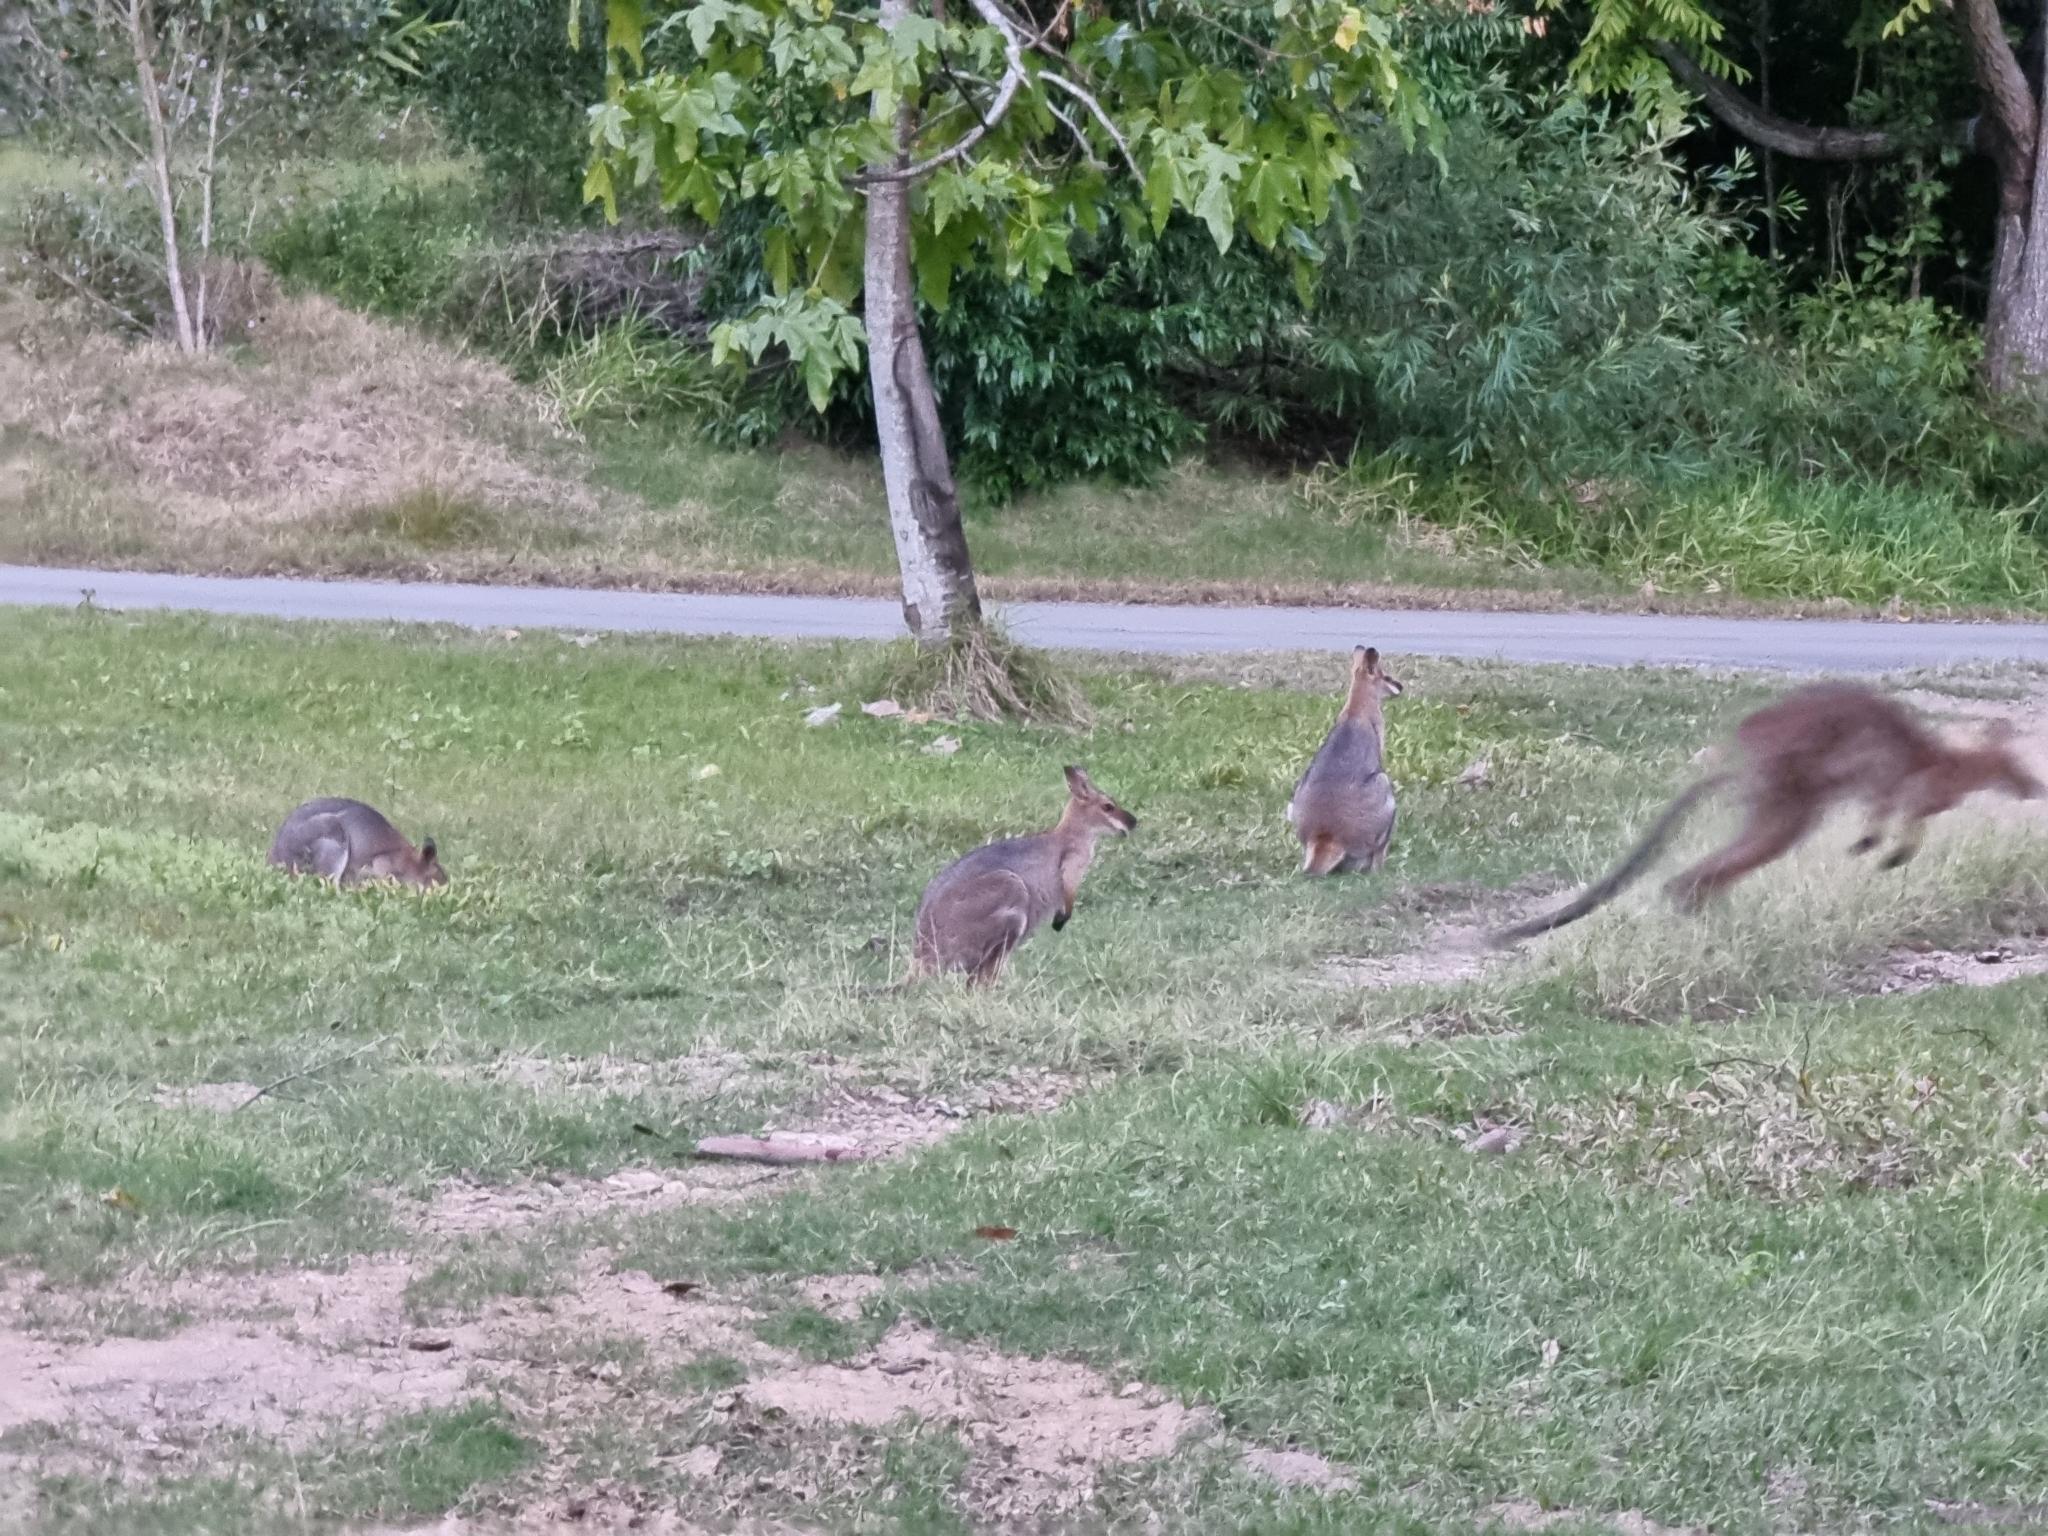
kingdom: Animalia
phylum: Chordata
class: Mammalia
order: Diprotodontia
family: Macropodidae
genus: Notamacropus
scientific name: Notamacropus rufogriseus
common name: Red-necked wallaby
